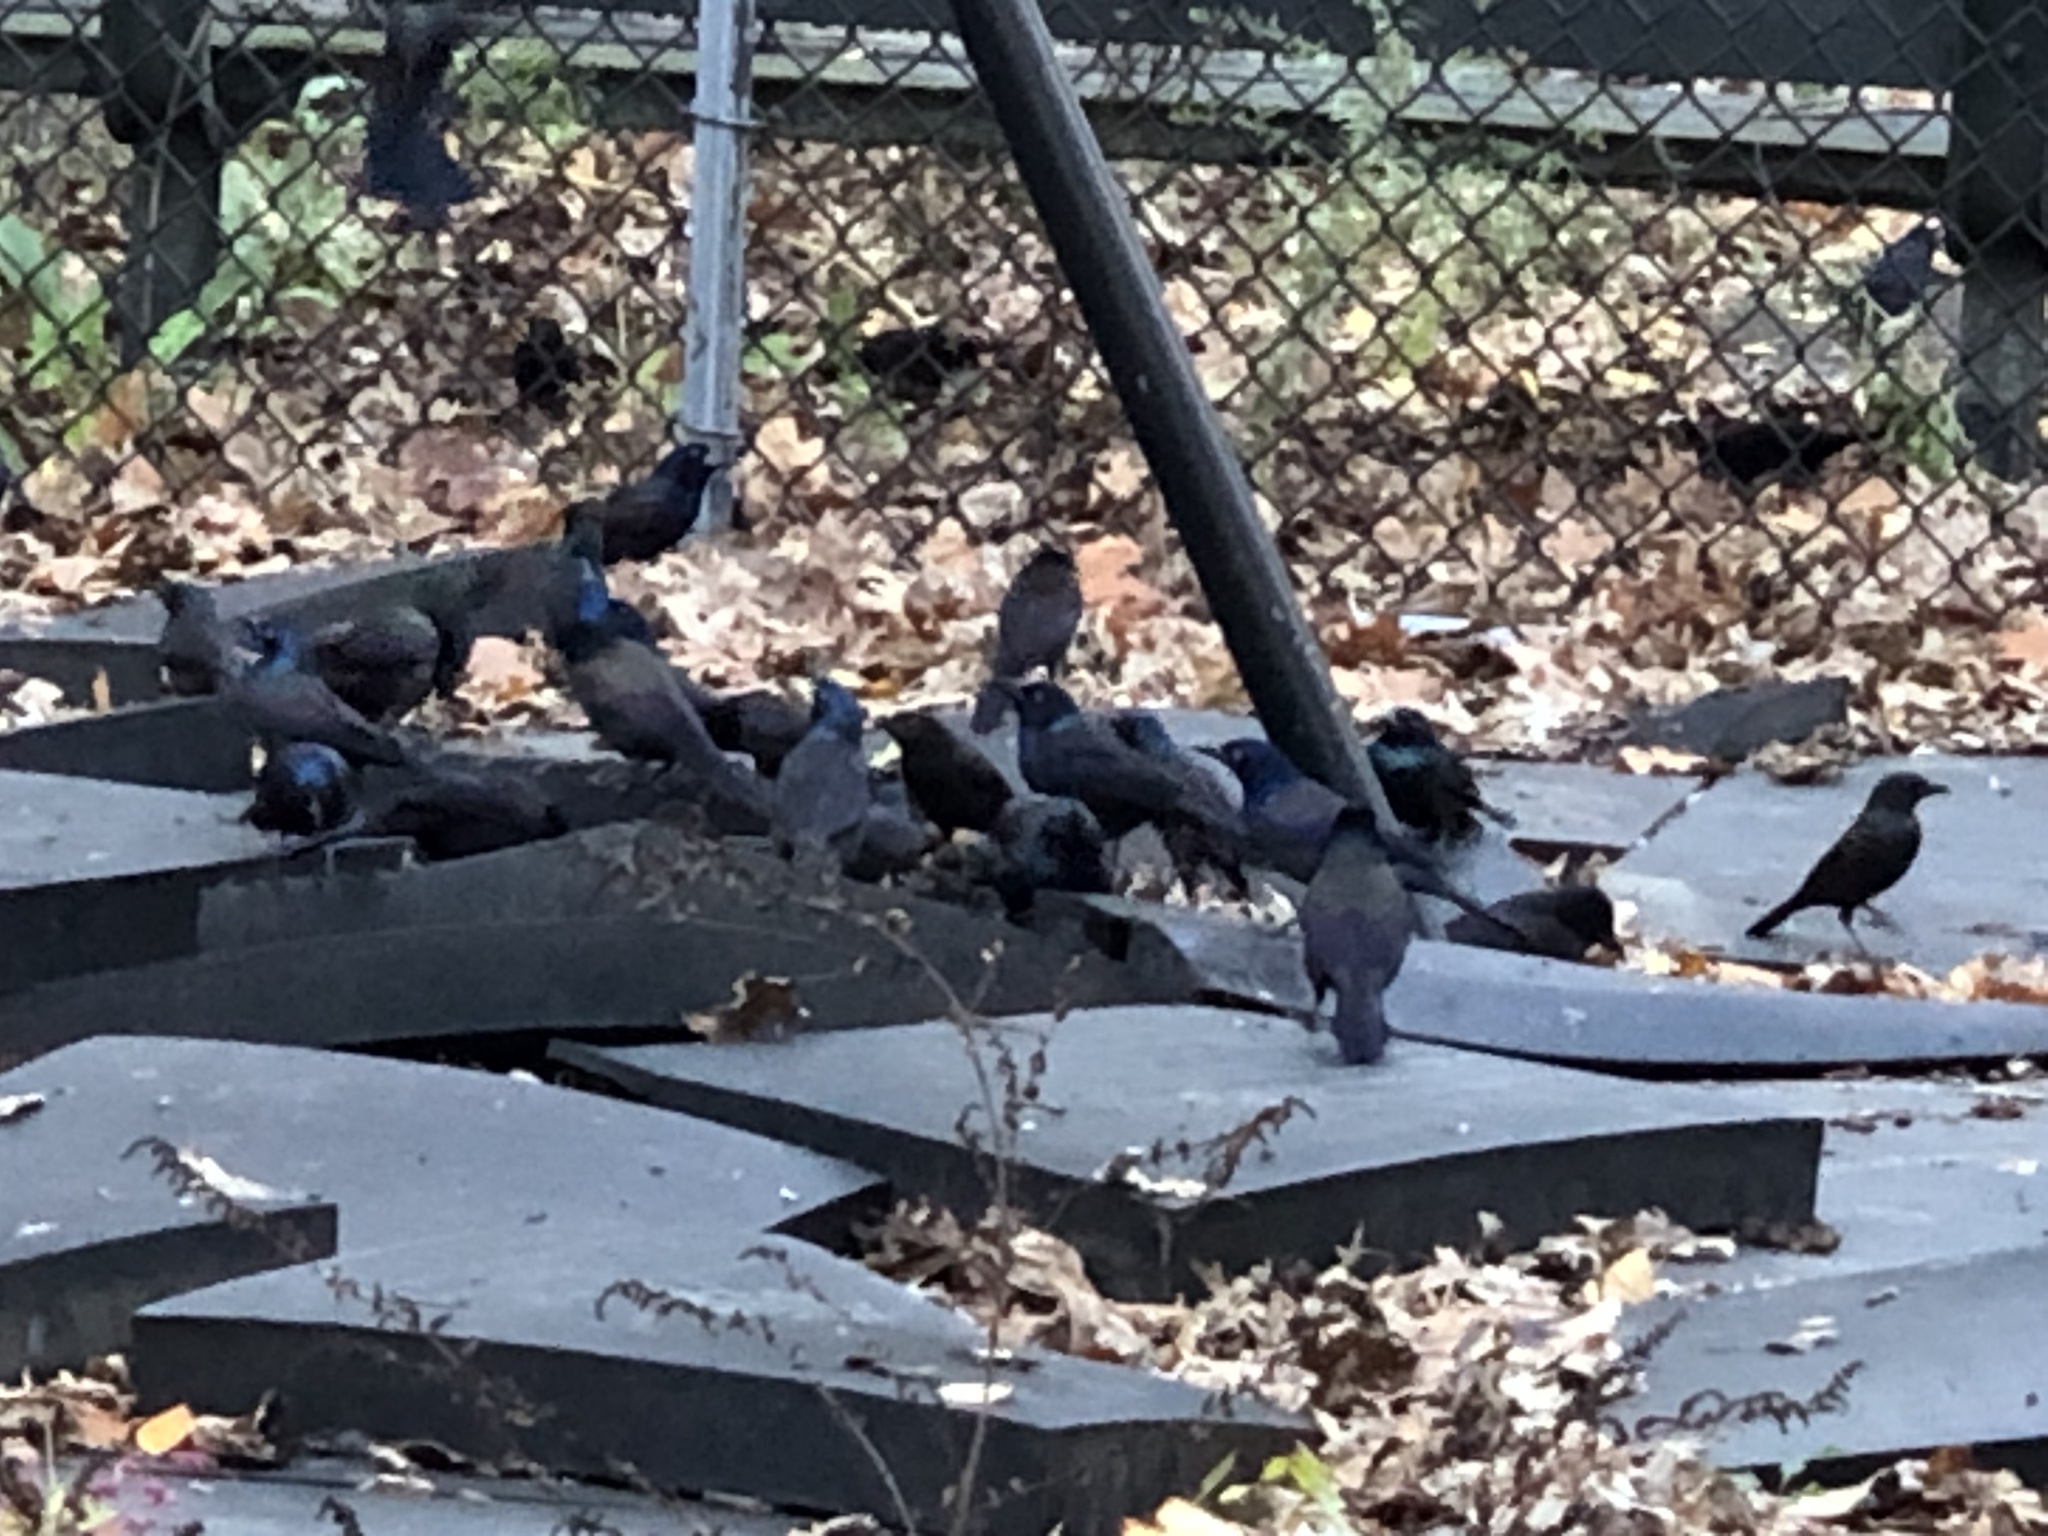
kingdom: Animalia
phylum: Chordata
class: Aves
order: Passeriformes
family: Icteridae
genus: Quiscalus
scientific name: Quiscalus quiscula
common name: Common grackle
